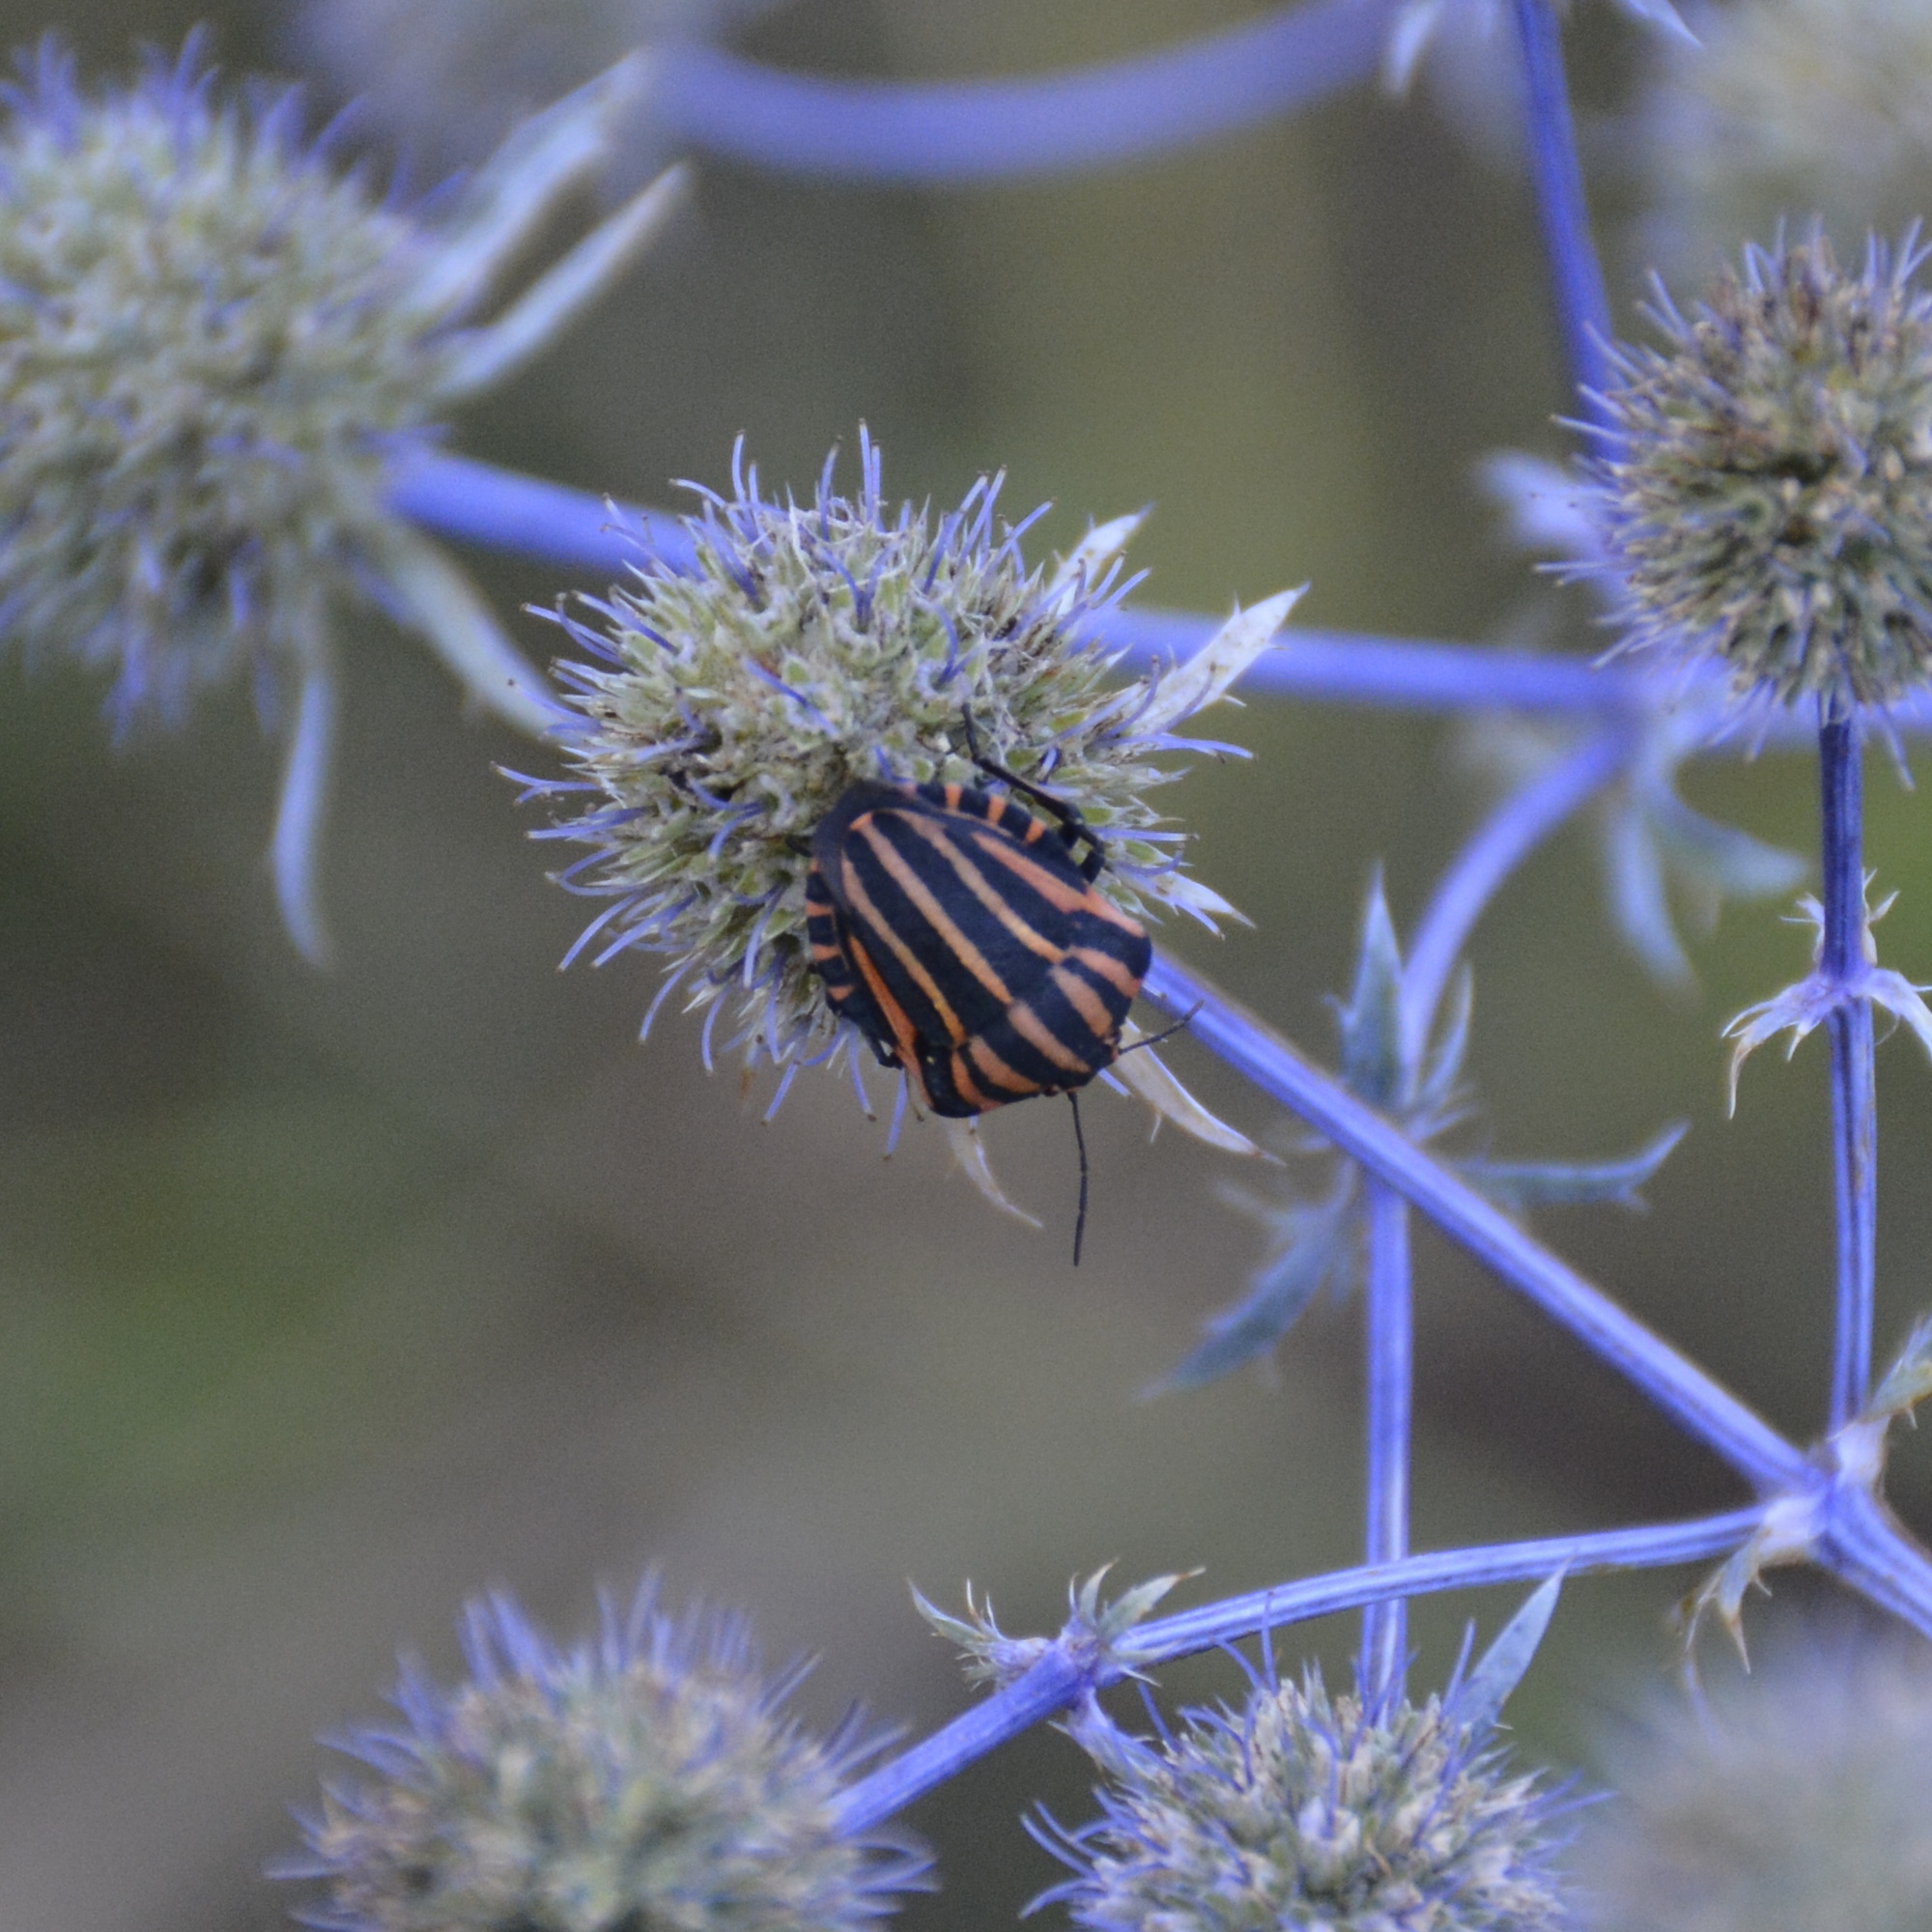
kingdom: Animalia
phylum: Arthropoda
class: Insecta
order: Hemiptera
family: Pentatomidae
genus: Graphosoma
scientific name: Graphosoma italicum
